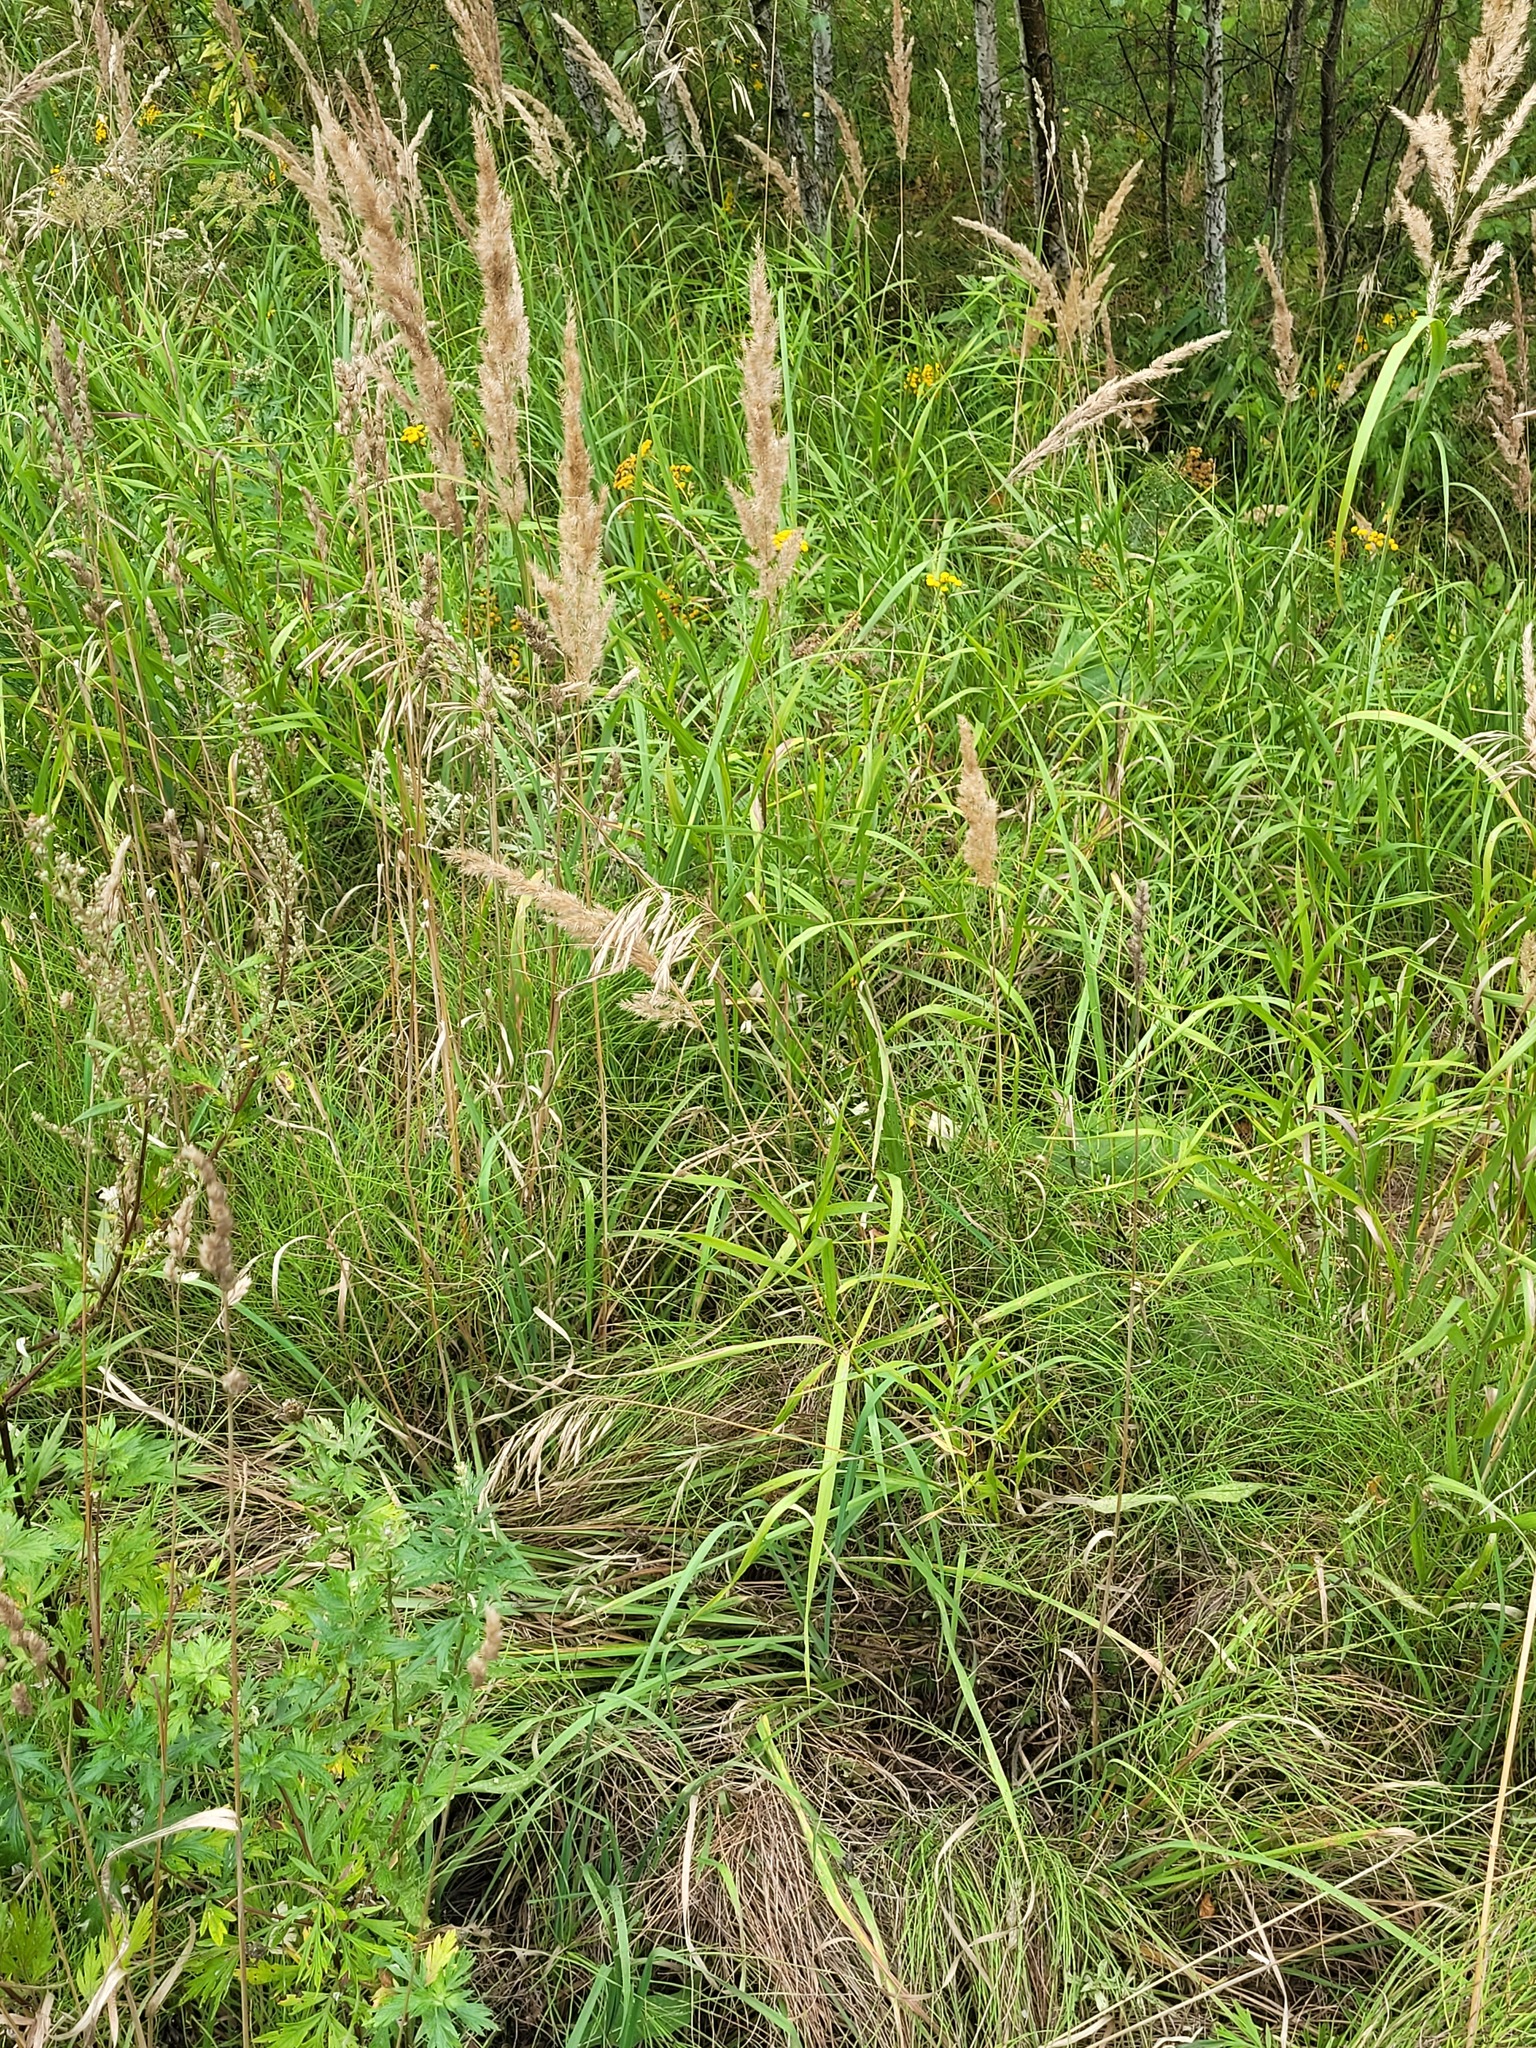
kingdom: Plantae
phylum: Tracheophyta
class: Liliopsida
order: Poales
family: Poaceae
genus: Bromus
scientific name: Bromus inermis
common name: Smooth brome
